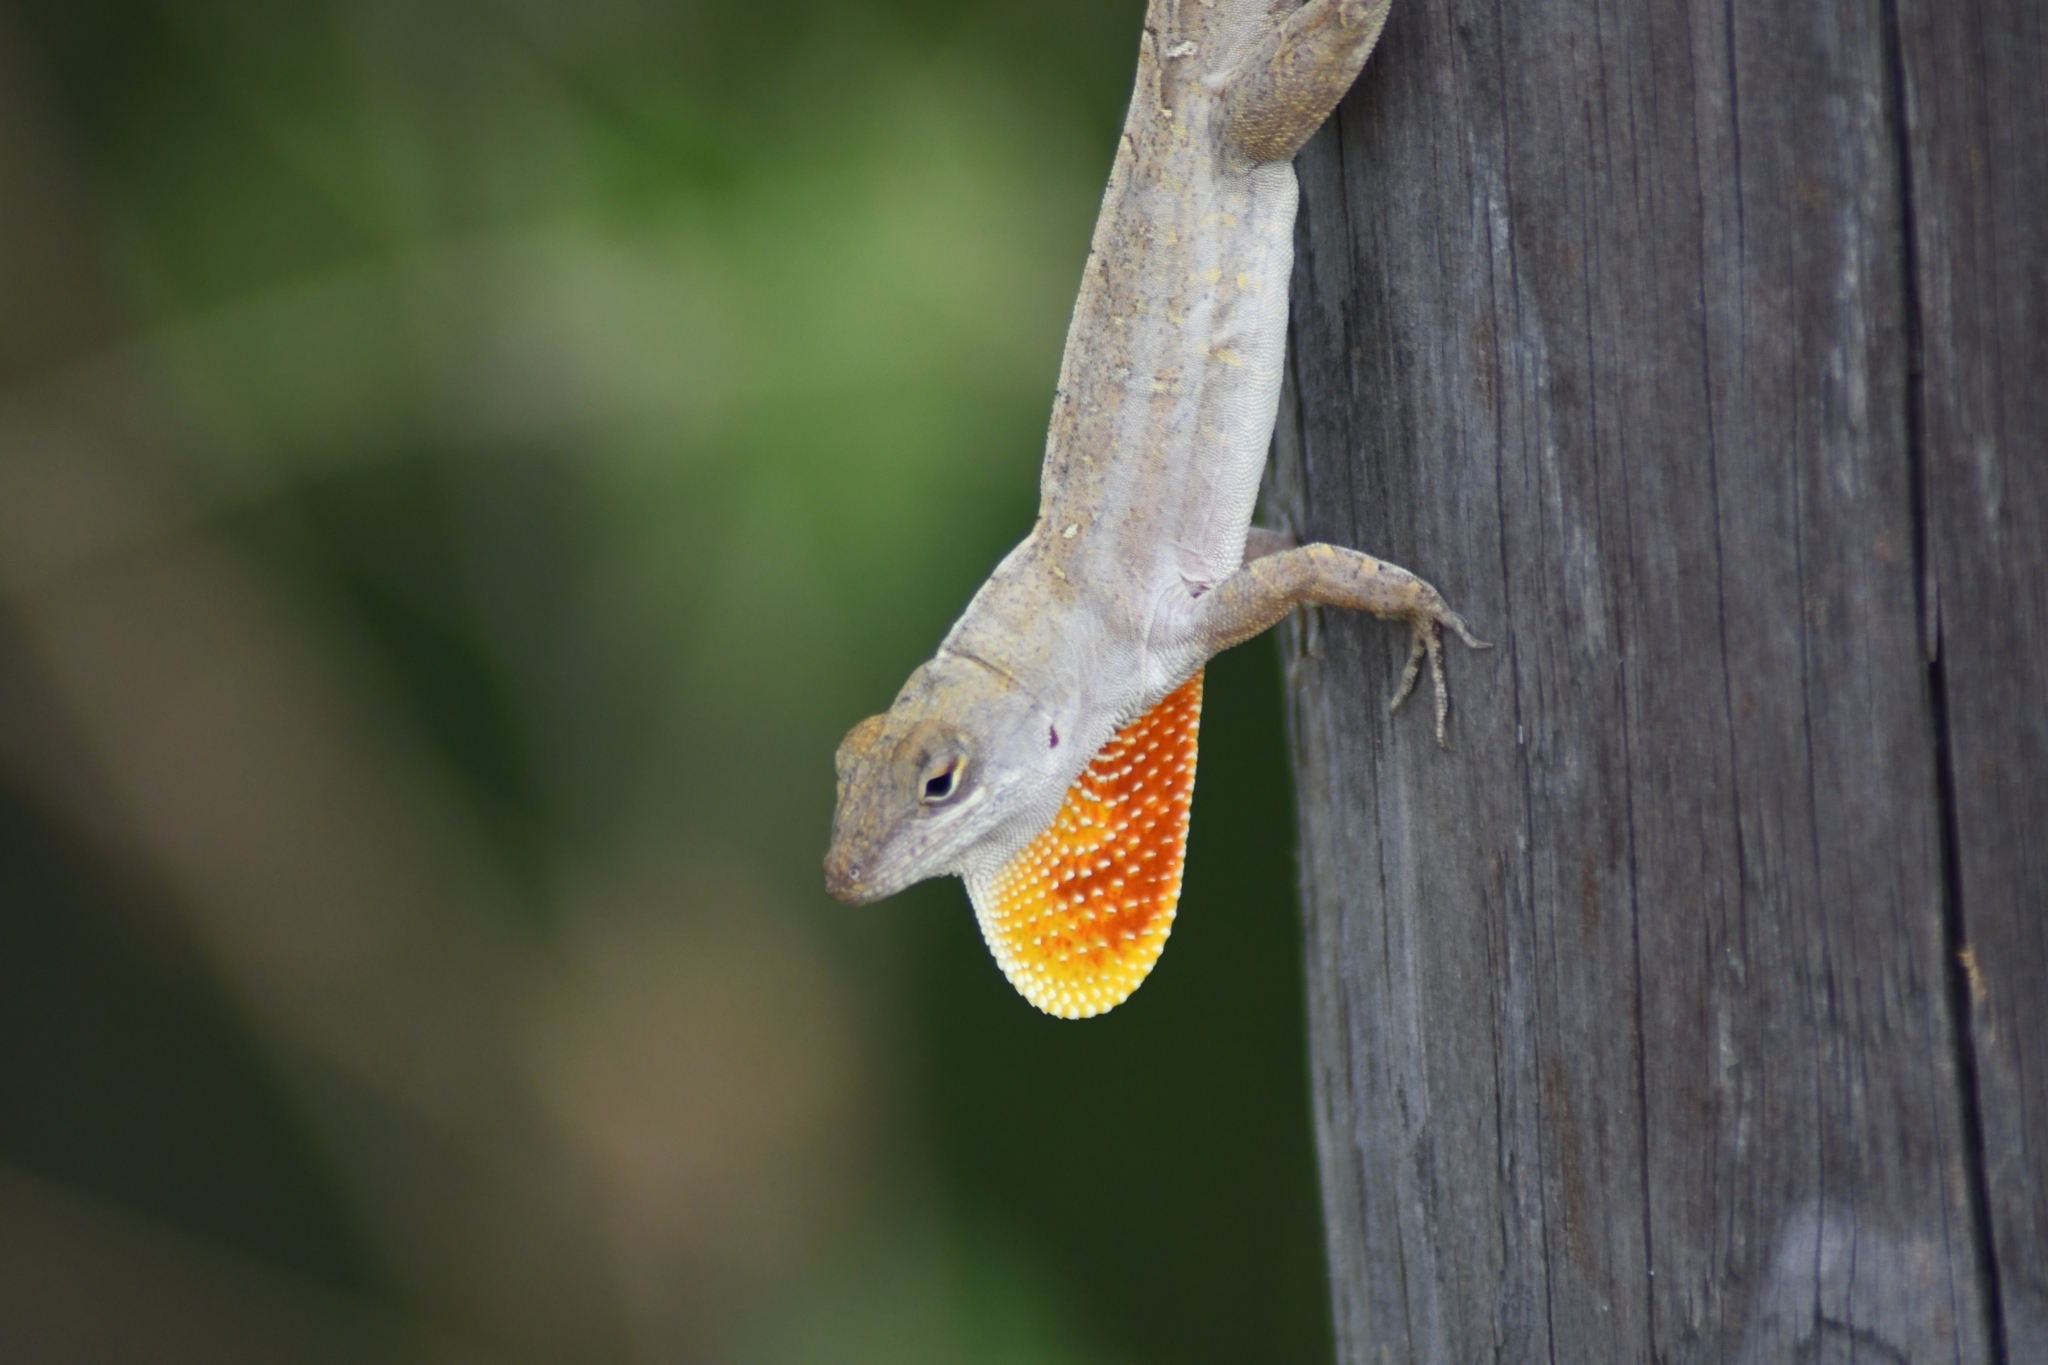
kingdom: Animalia
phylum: Chordata
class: Squamata
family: Dactyloidae
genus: Anolis
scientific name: Anolis sagrei
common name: Brown anole
